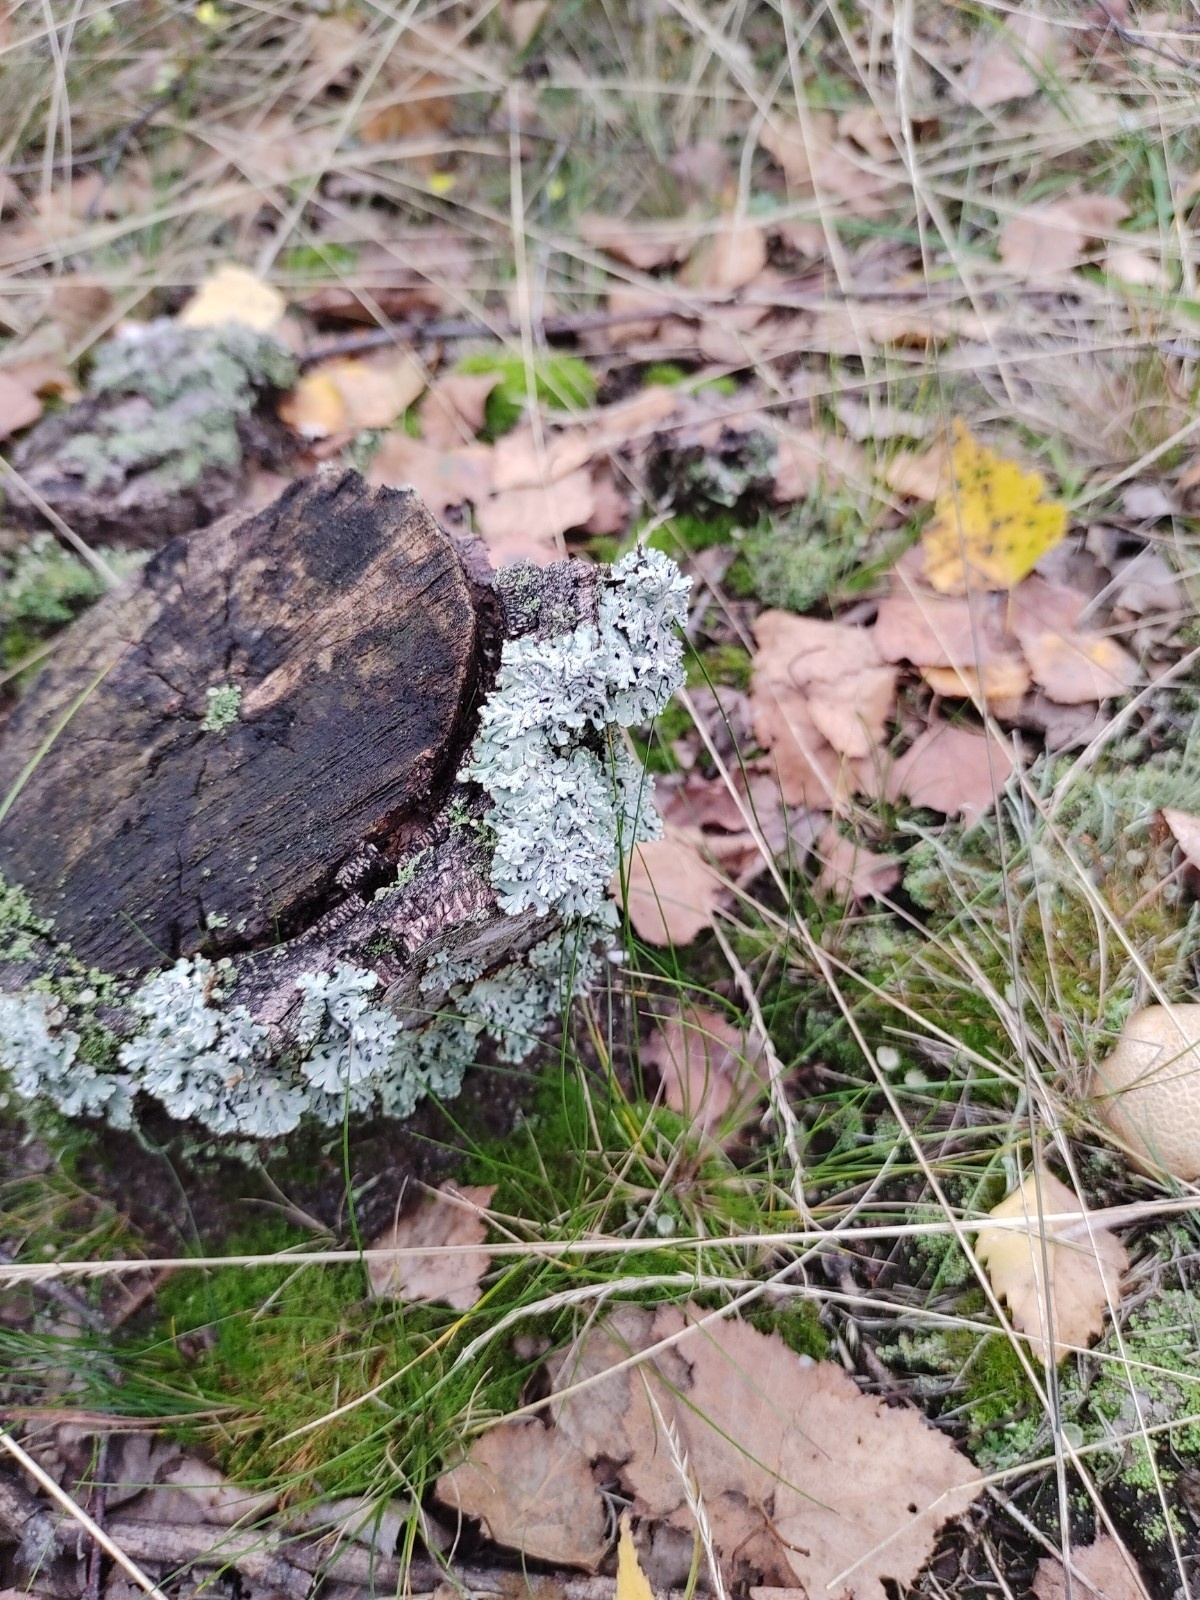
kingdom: Fungi
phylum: Ascomycota
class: Lecanoromycetes
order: Lecanorales
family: Parmeliaceae
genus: Hypogymnia
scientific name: Hypogymnia physodes
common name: Dark crottle
